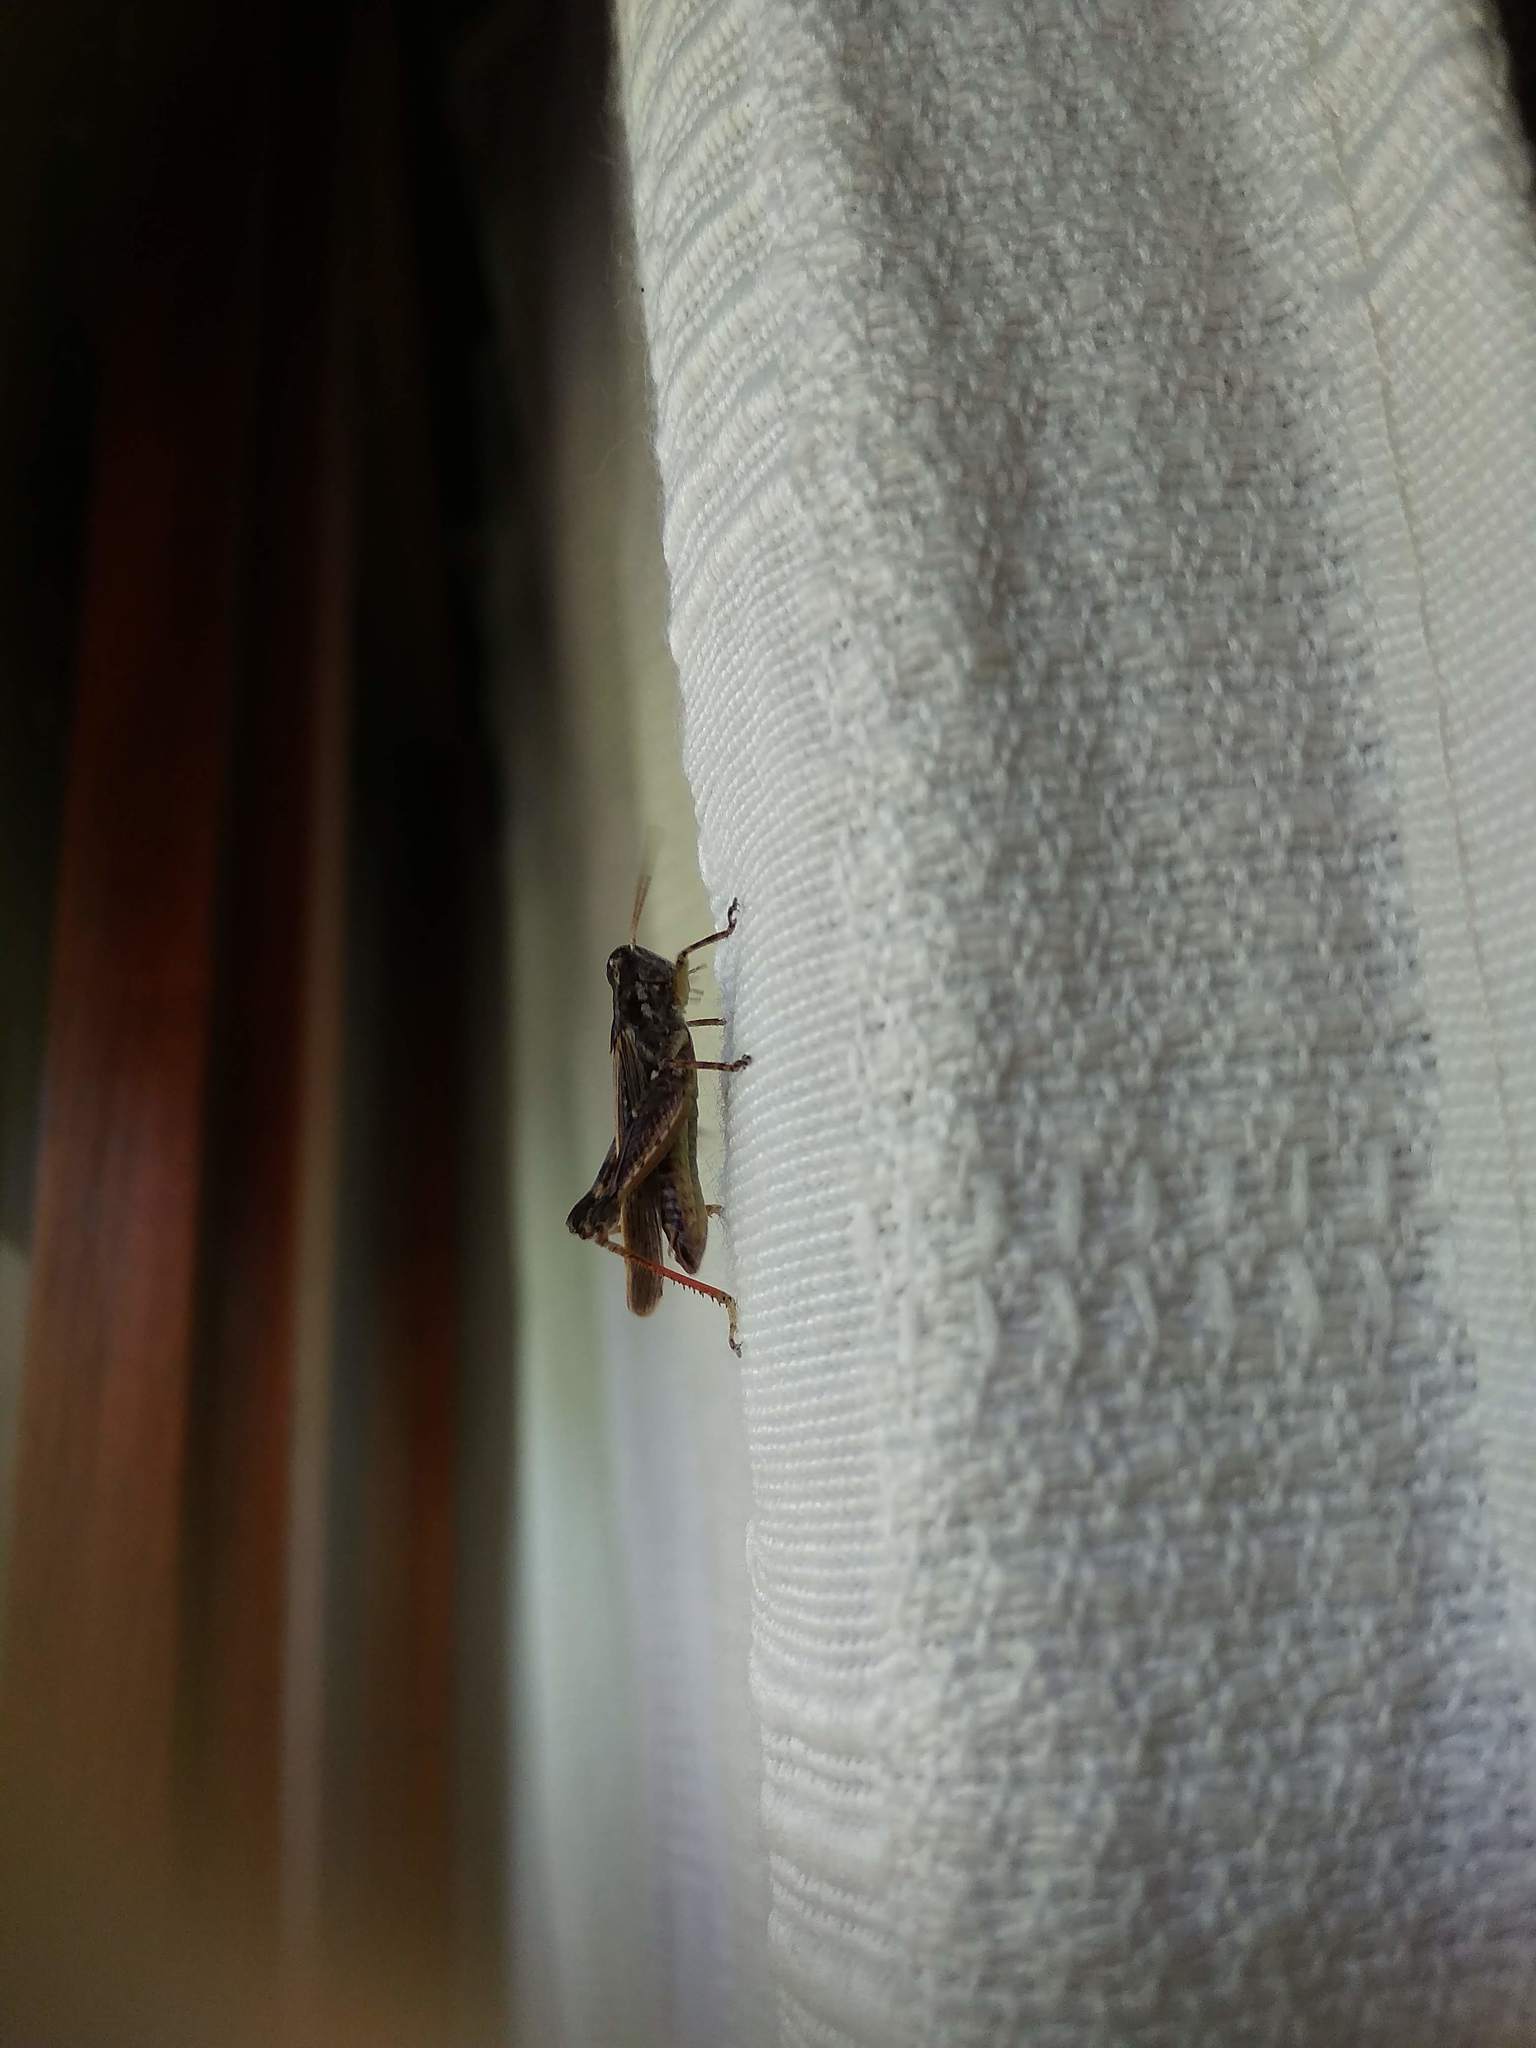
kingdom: Animalia
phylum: Arthropoda
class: Insecta
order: Orthoptera
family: Acrididae
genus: Baeacris
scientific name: Baeacris
